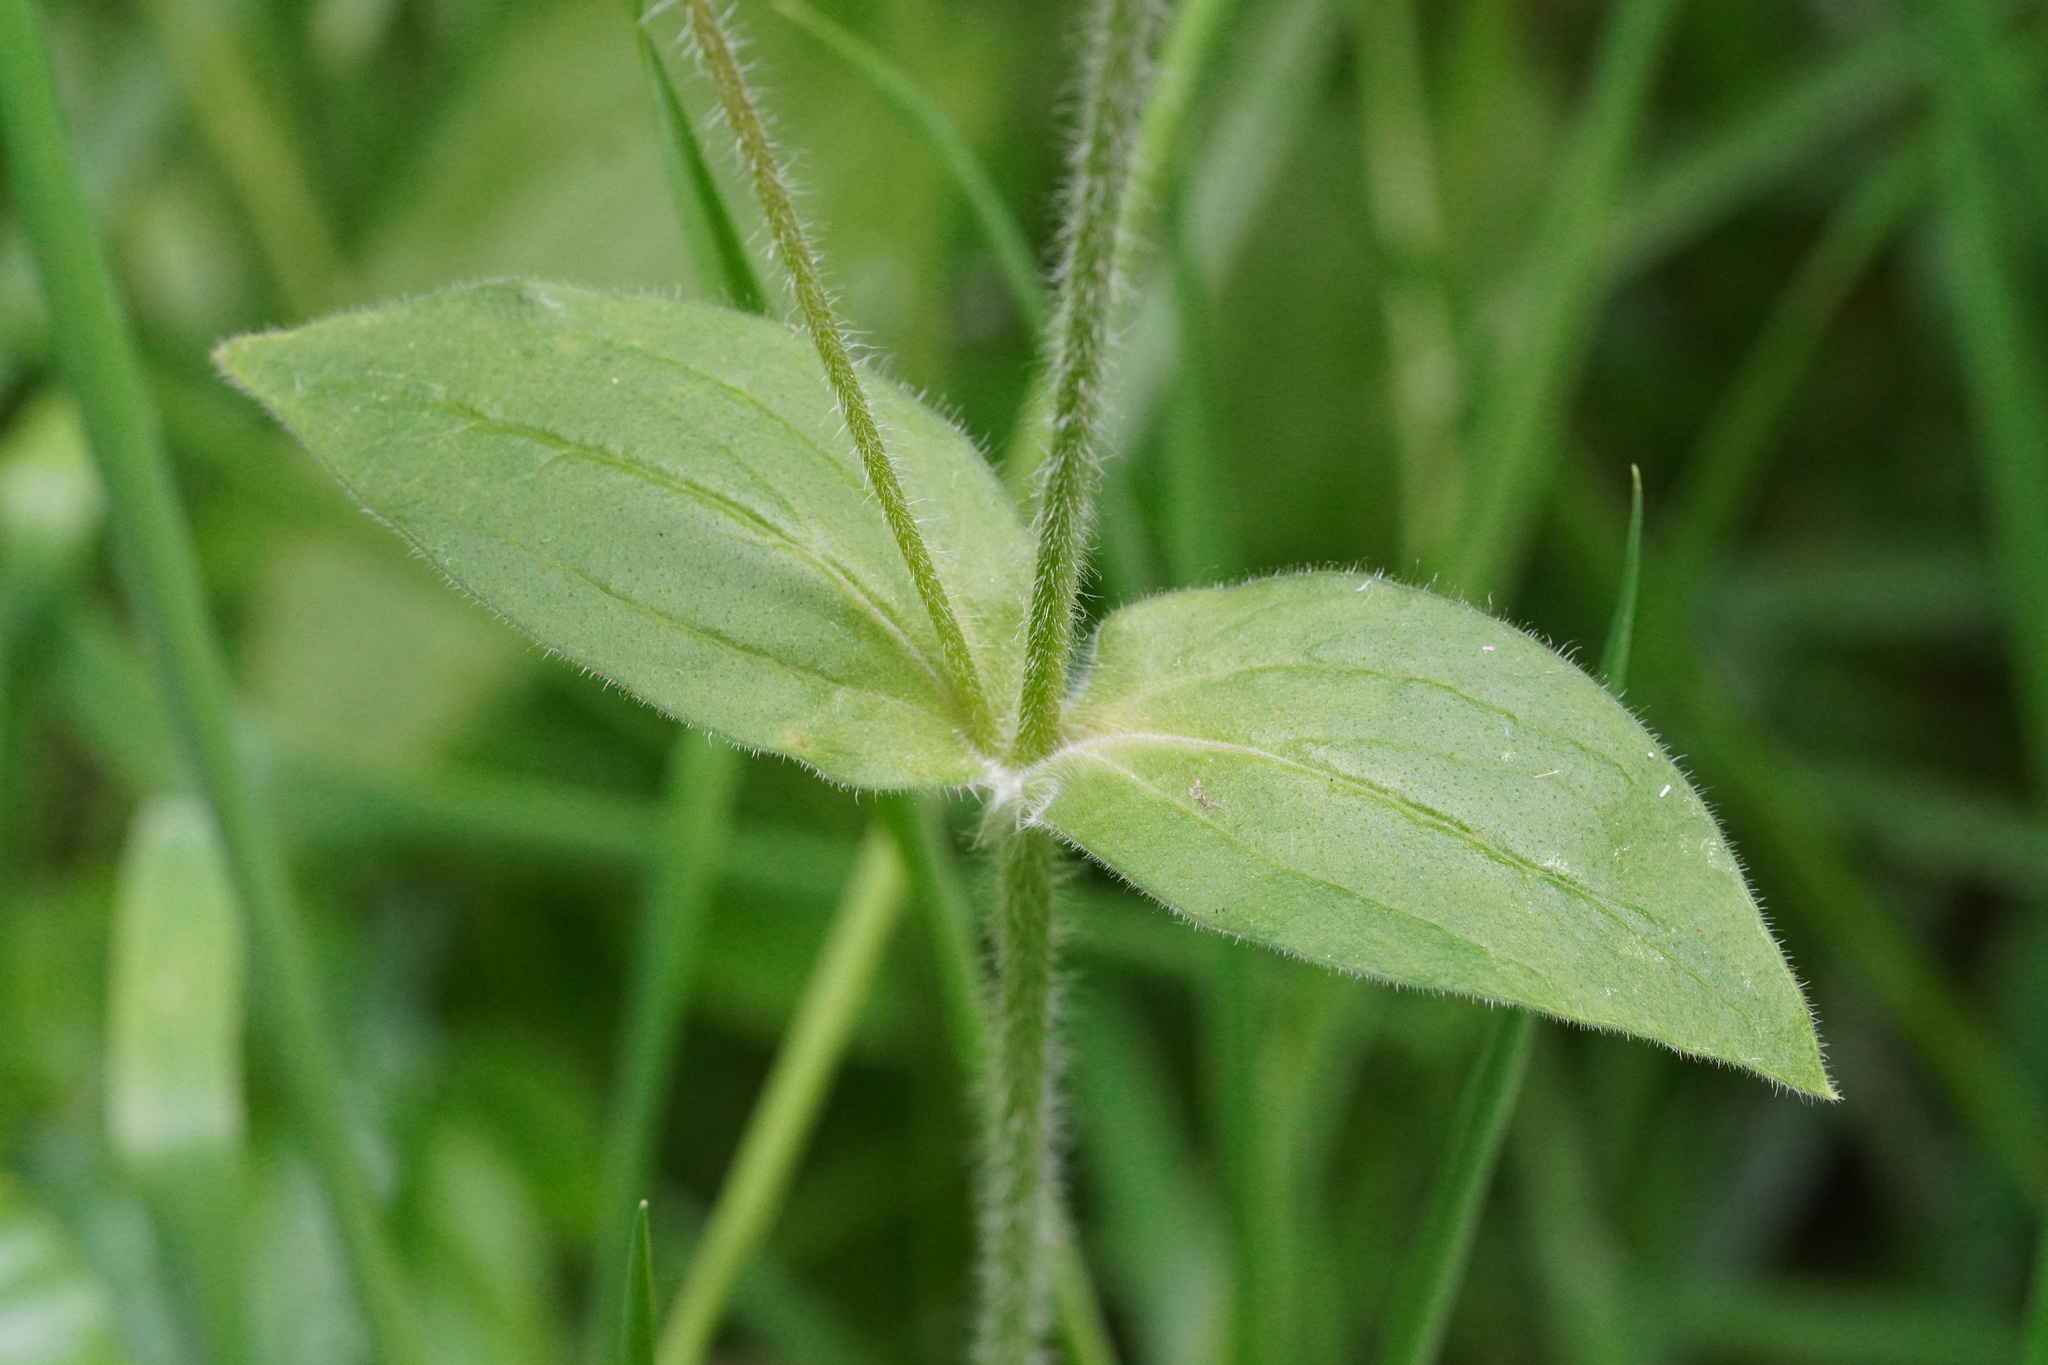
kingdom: Plantae
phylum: Tracheophyta
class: Magnoliopsida
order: Caryophyllales
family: Caryophyllaceae
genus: Silene
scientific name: Silene dioica
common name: Red campion
